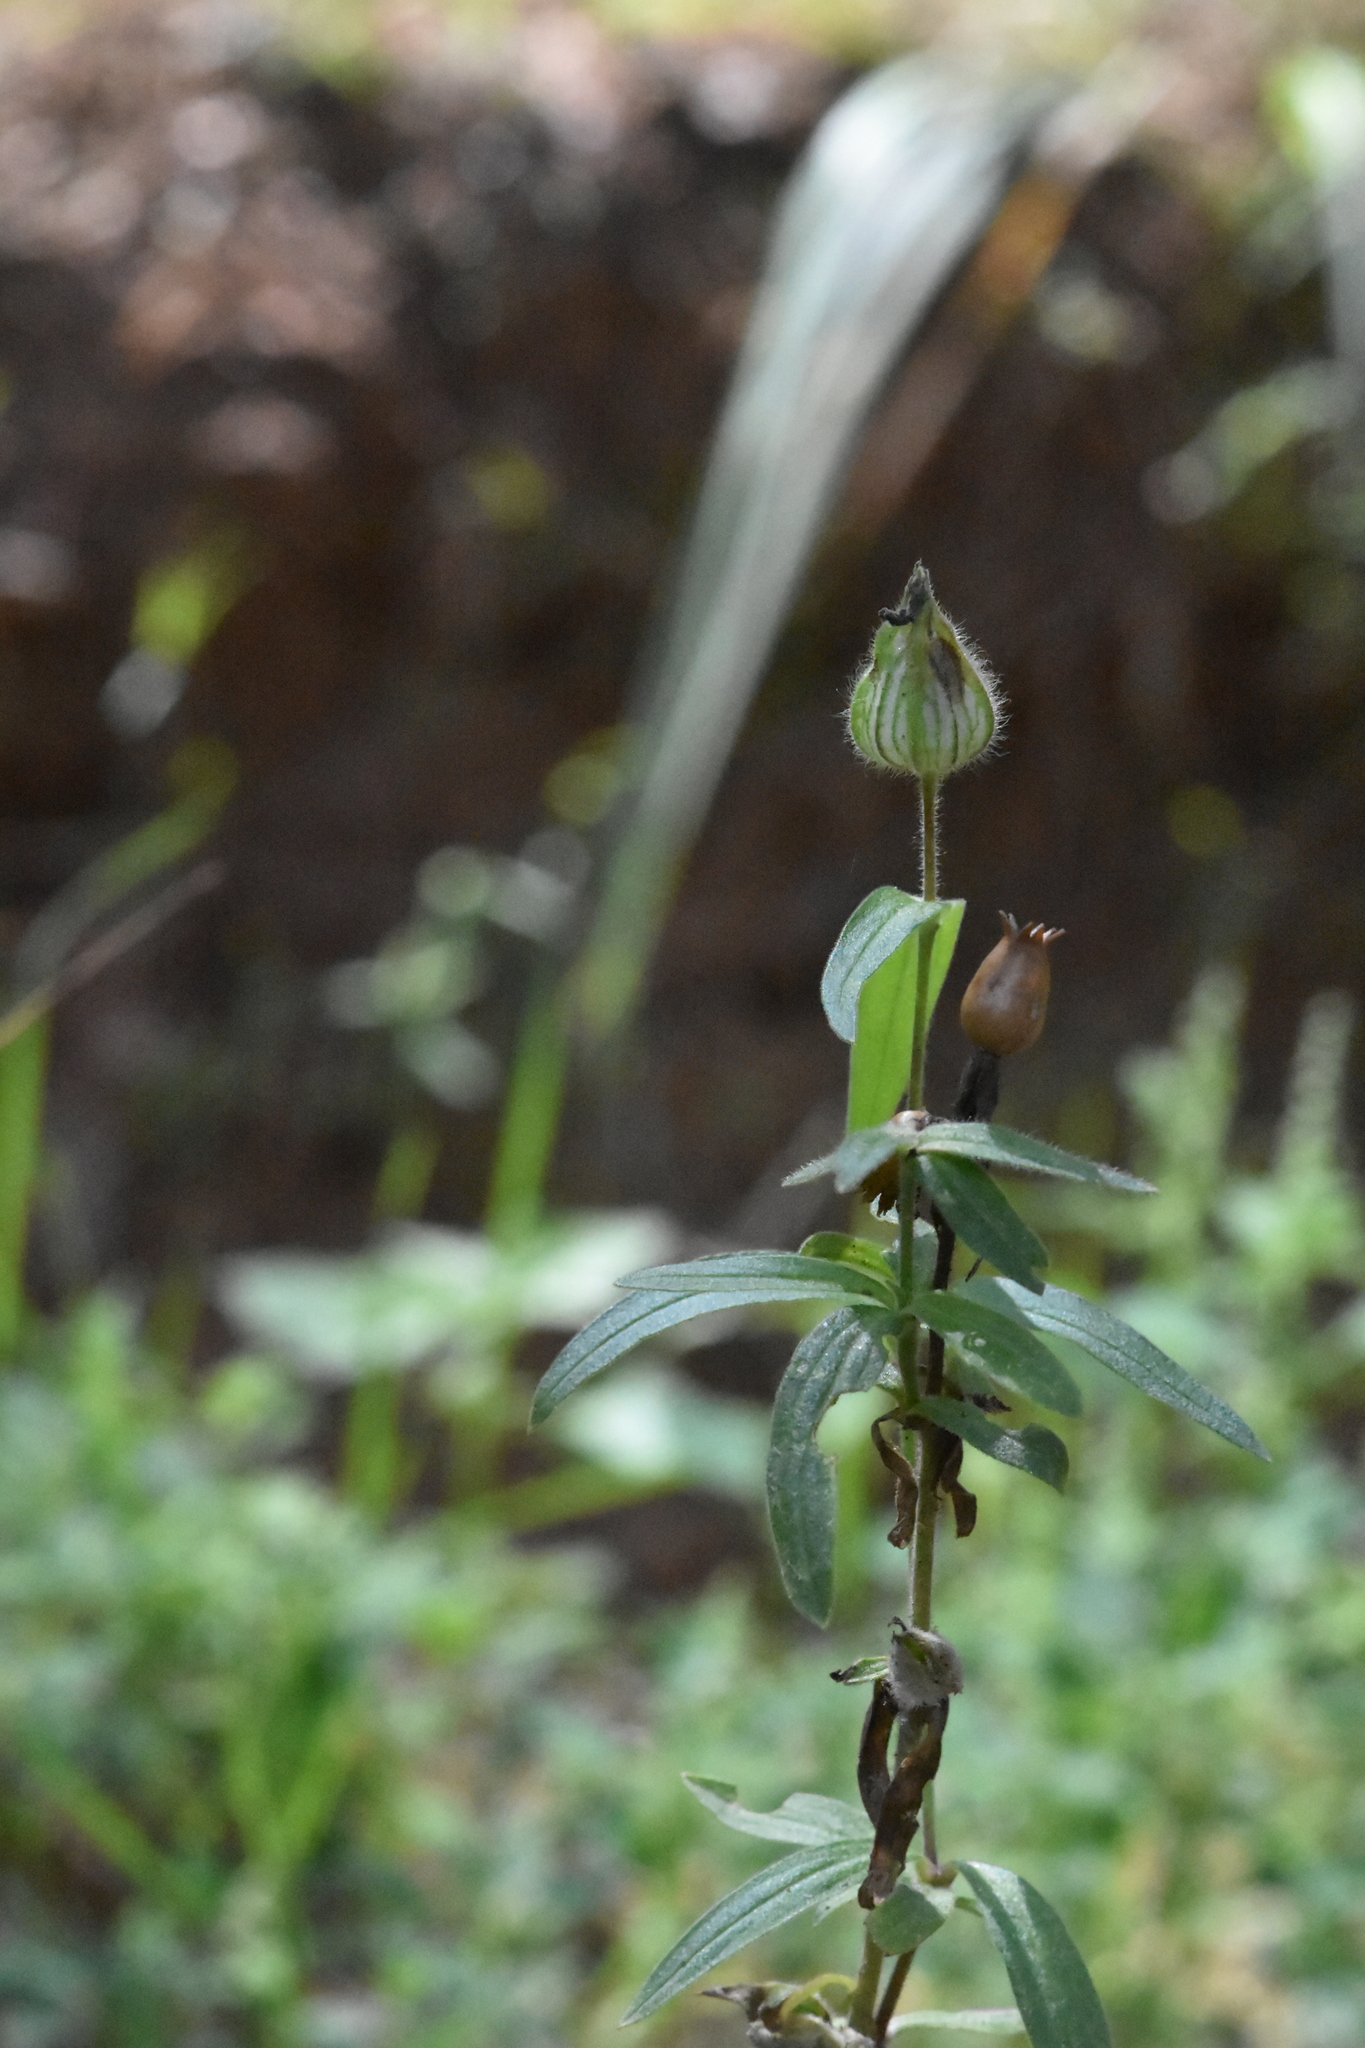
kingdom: Plantae
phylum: Tracheophyta
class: Magnoliopsida
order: Caryophyllales
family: Caryophyllaceae
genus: Silene
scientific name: Silene latifolia
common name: White campion
